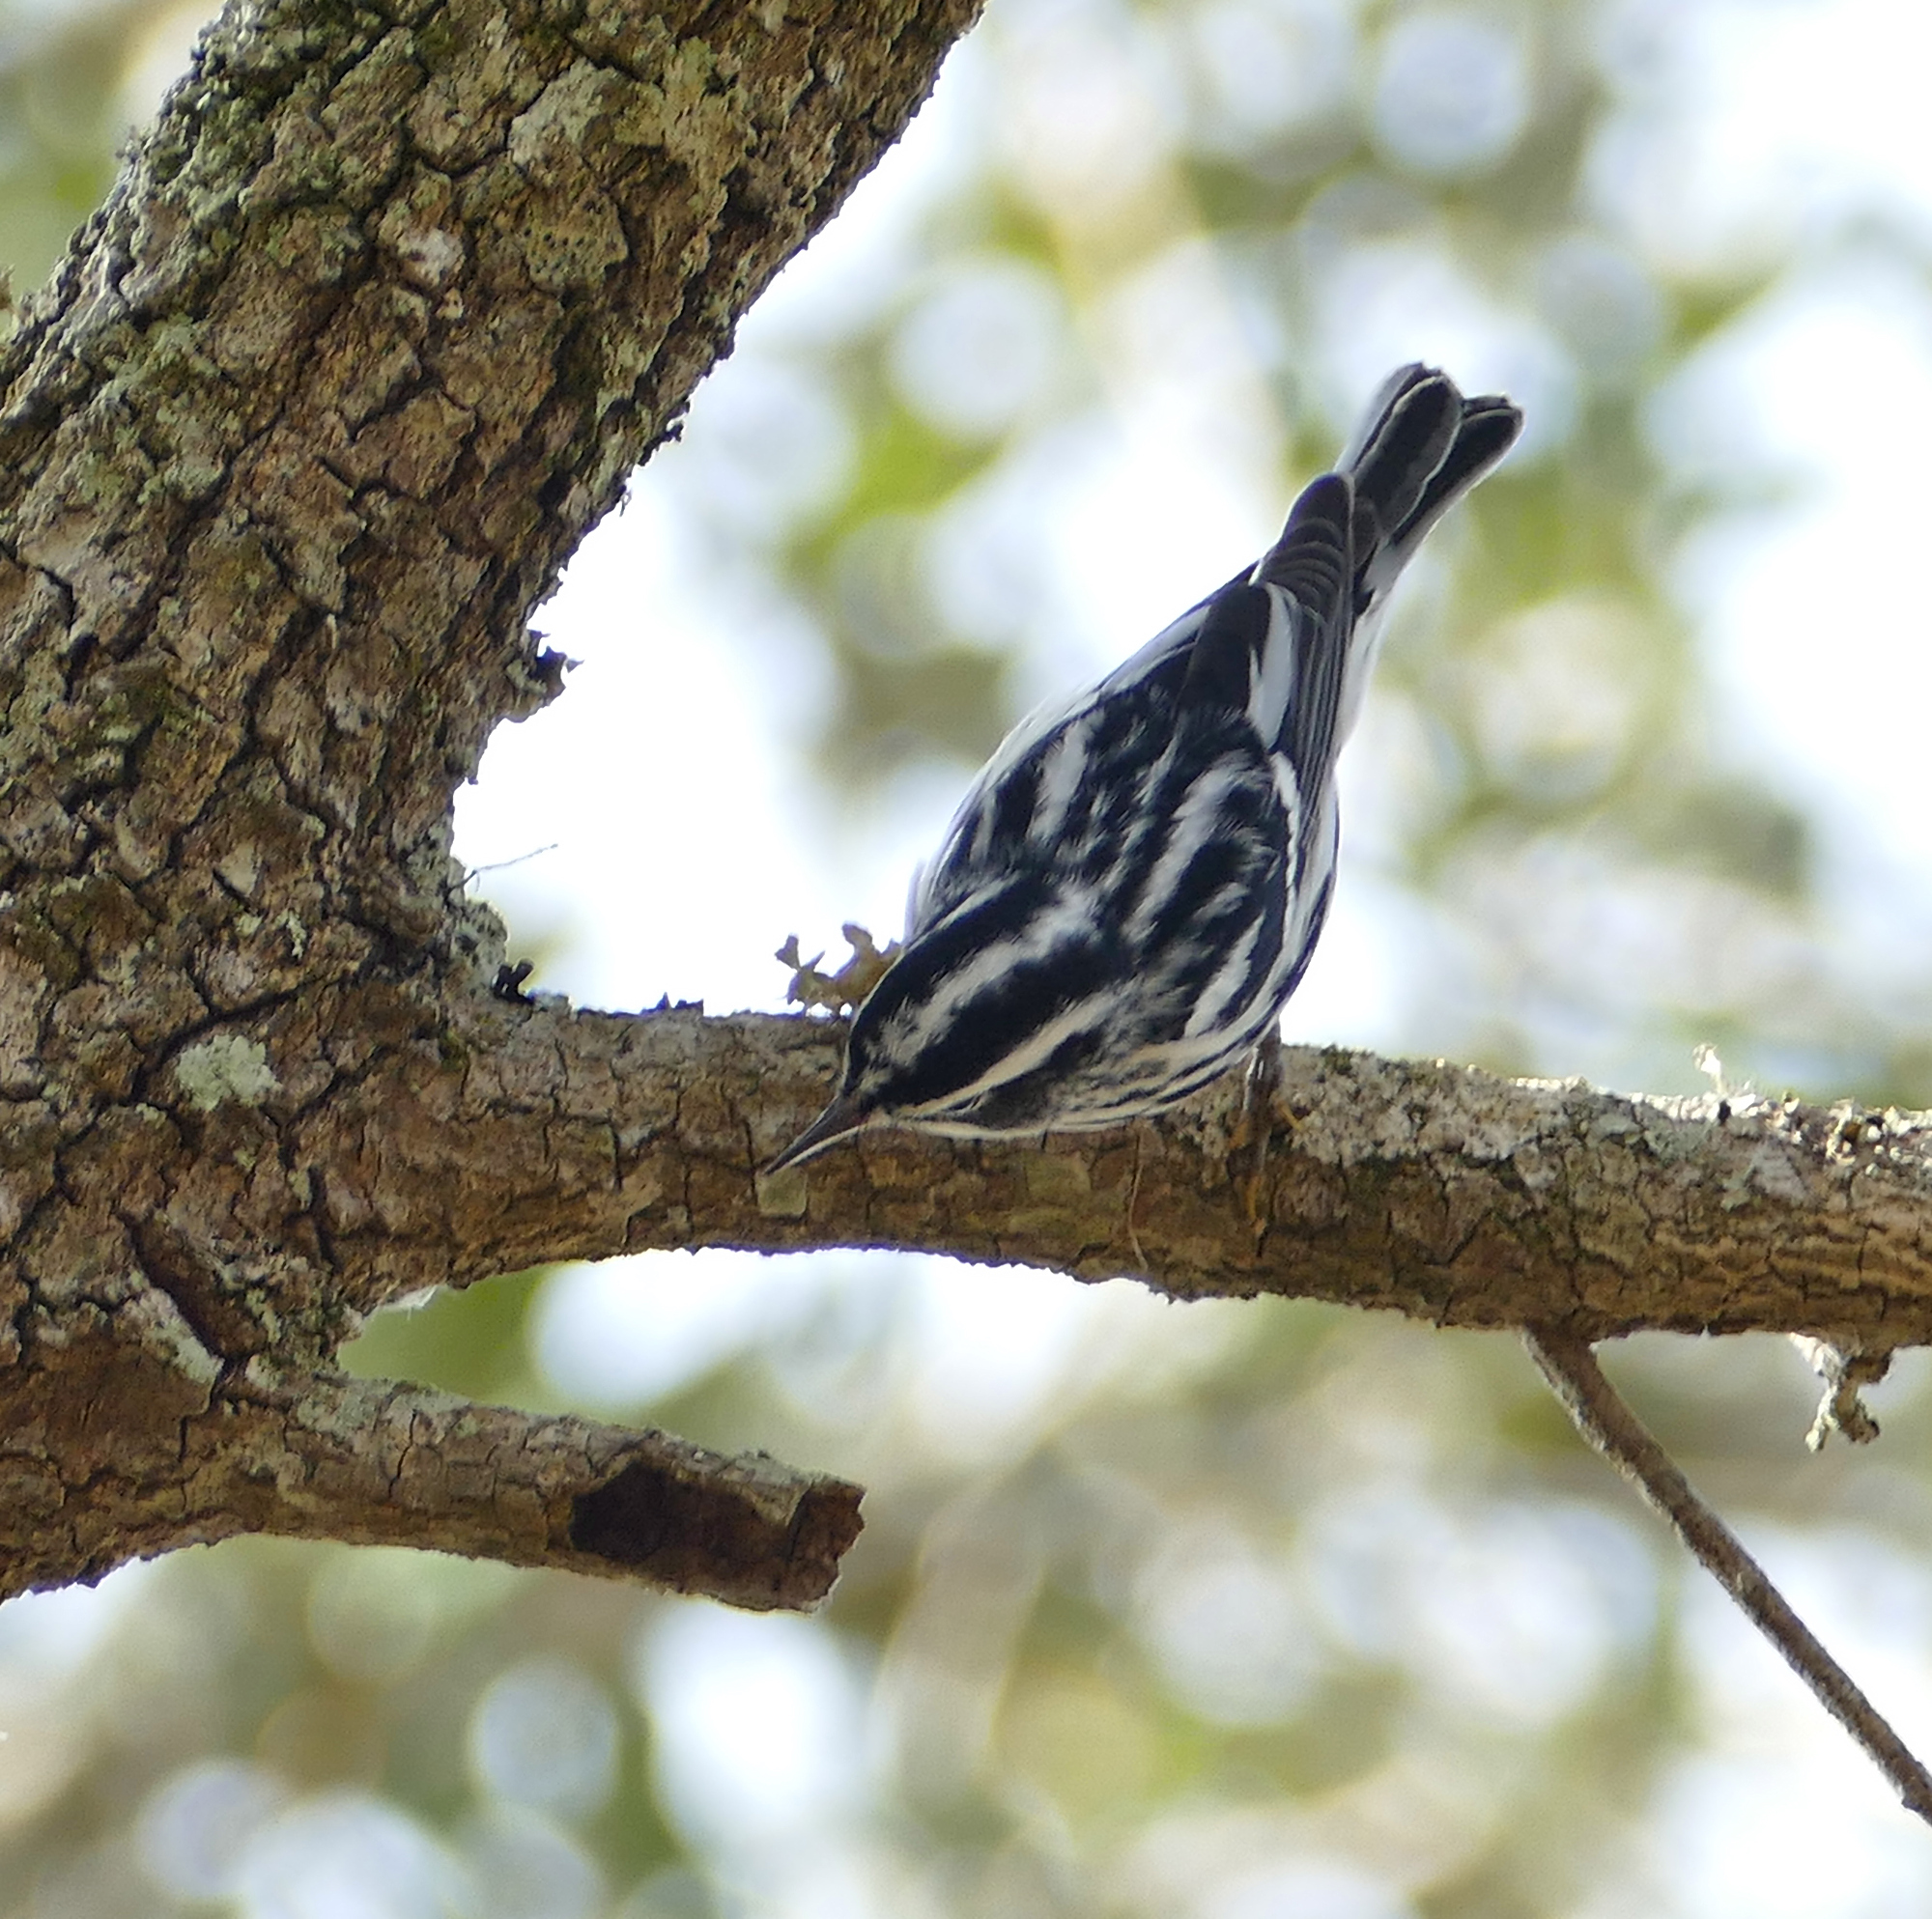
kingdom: Animalia
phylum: Chordata
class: Aves
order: Passeriformes
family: Parulidae
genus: Mniotilta
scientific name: Mniotilta varia
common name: Black-and-white warbler
